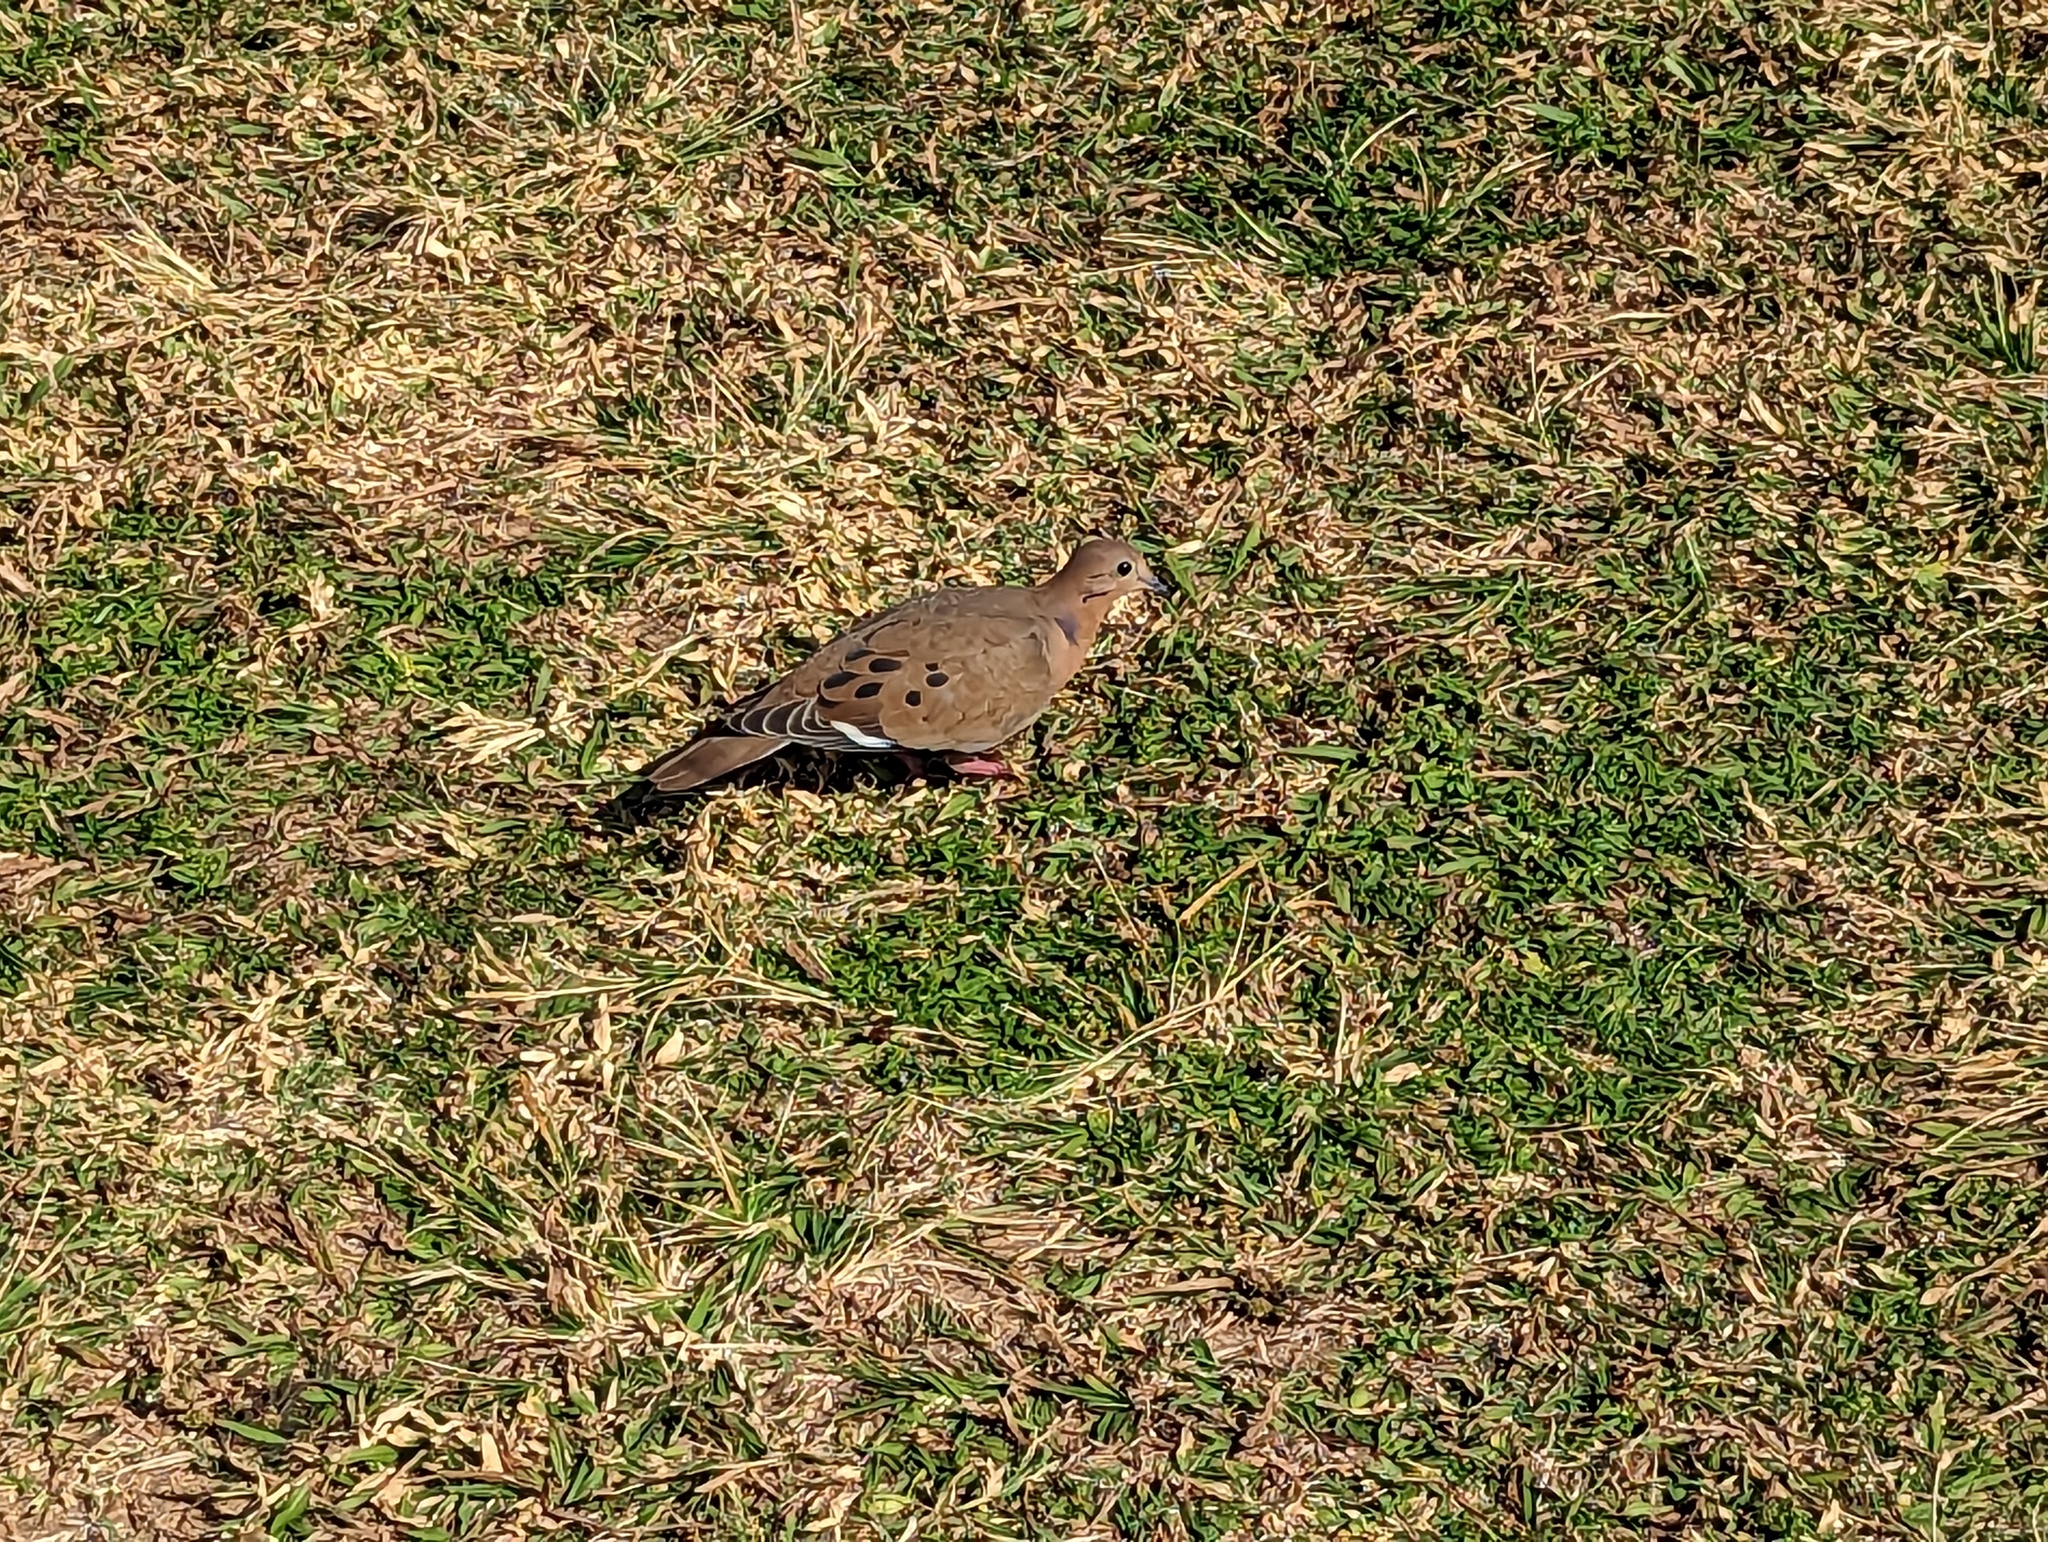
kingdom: Animalia
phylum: Chordata
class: Aves
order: Columbiformes
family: Columbidae
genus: Zenaida
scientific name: Zenaida aurita
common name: Zenaida dove
